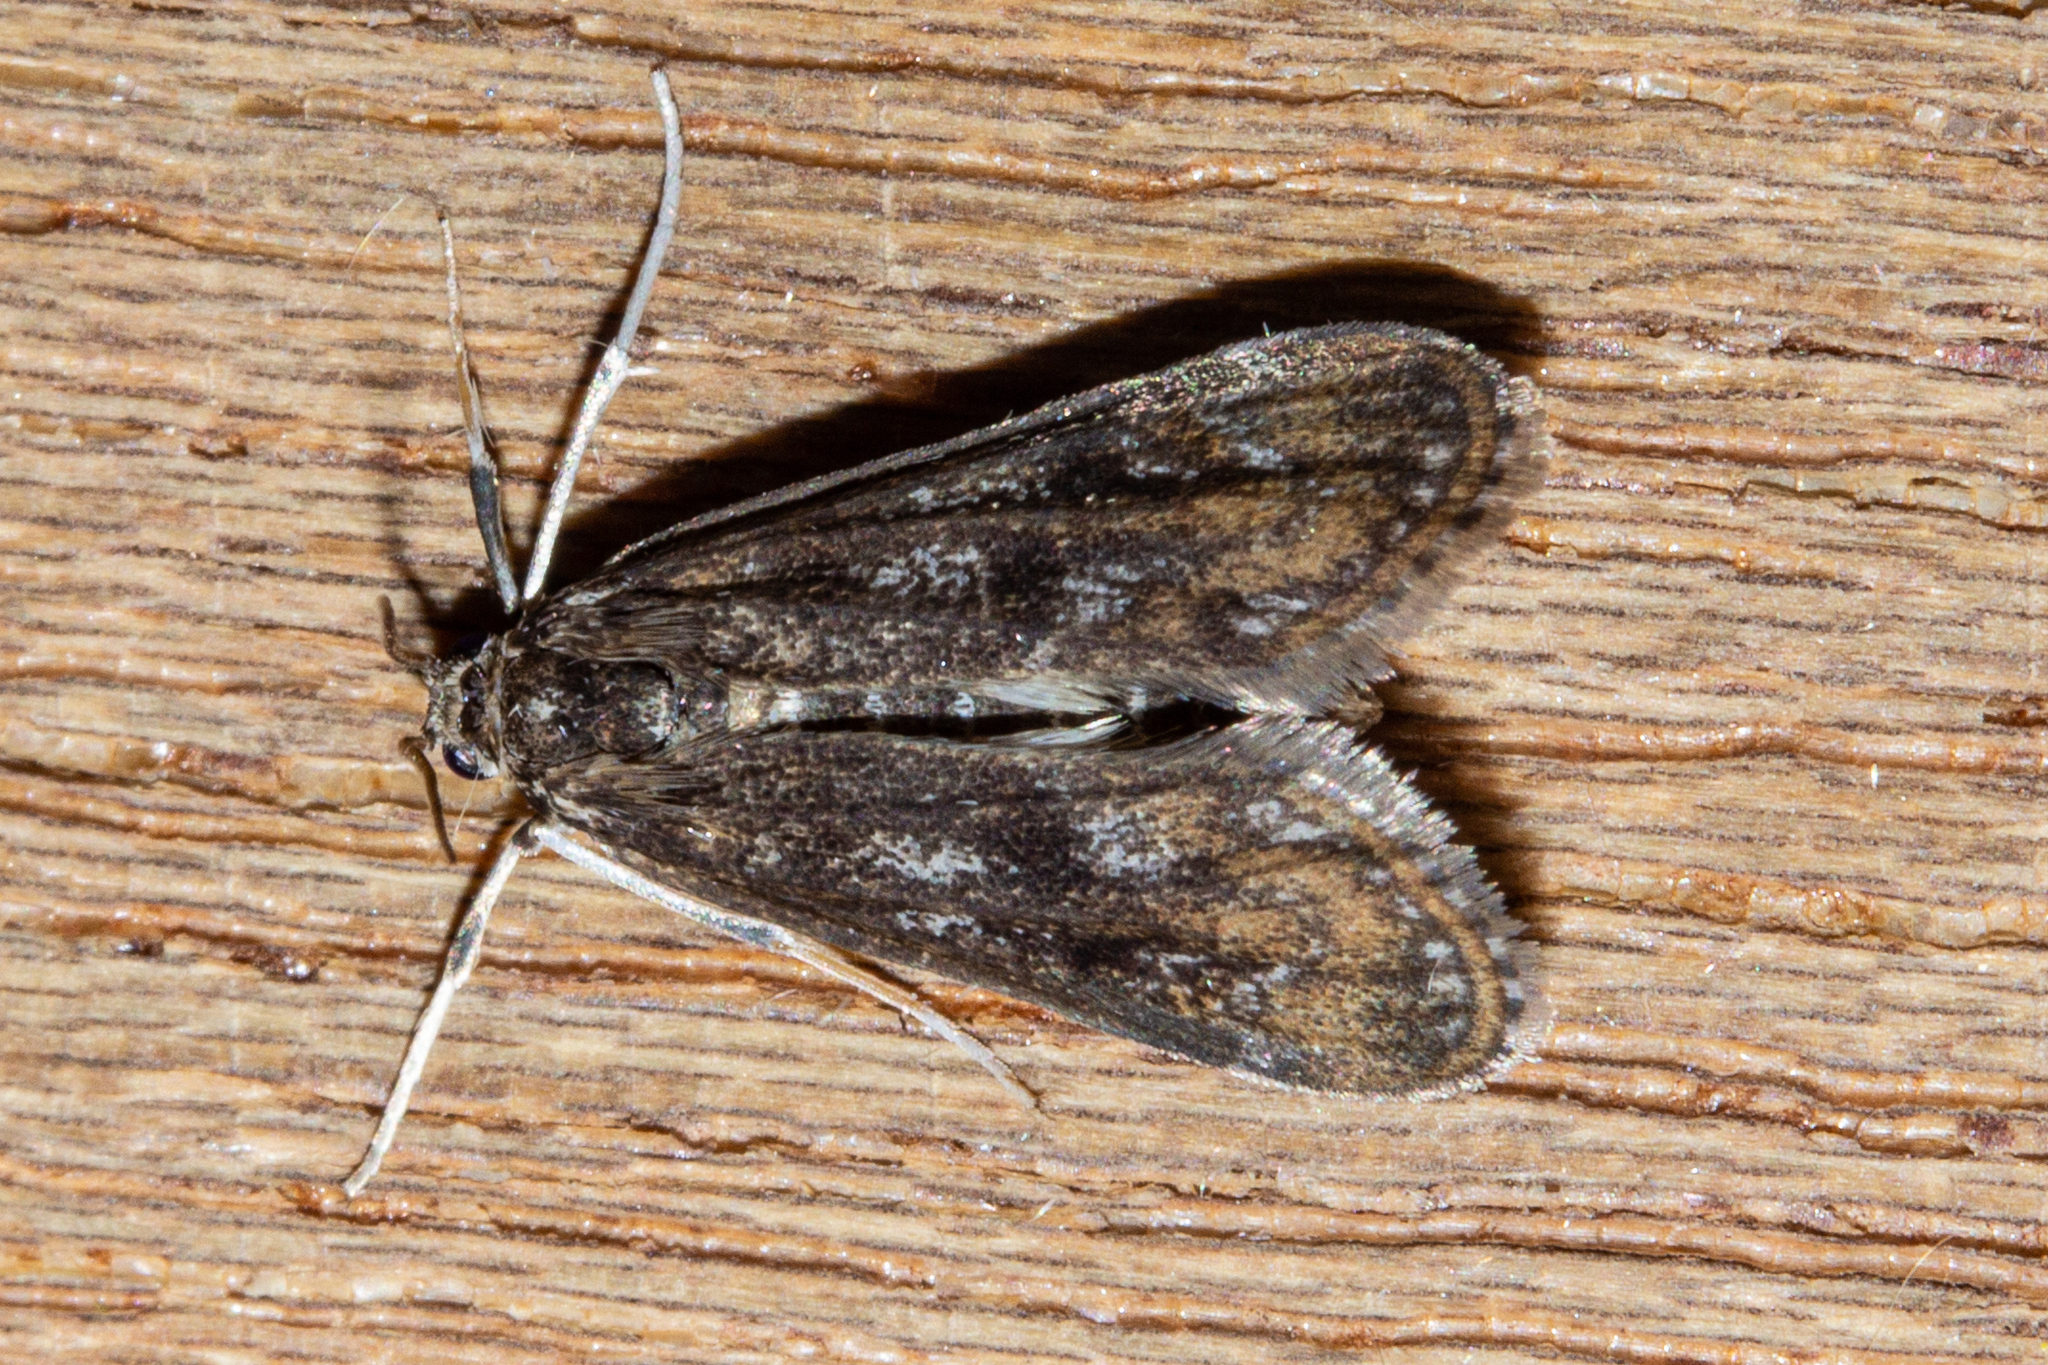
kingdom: Animalia
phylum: Arthropoda
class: Insecta
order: Lepidoptera
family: Crambidae
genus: Hygraula
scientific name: Hygraula nitens
